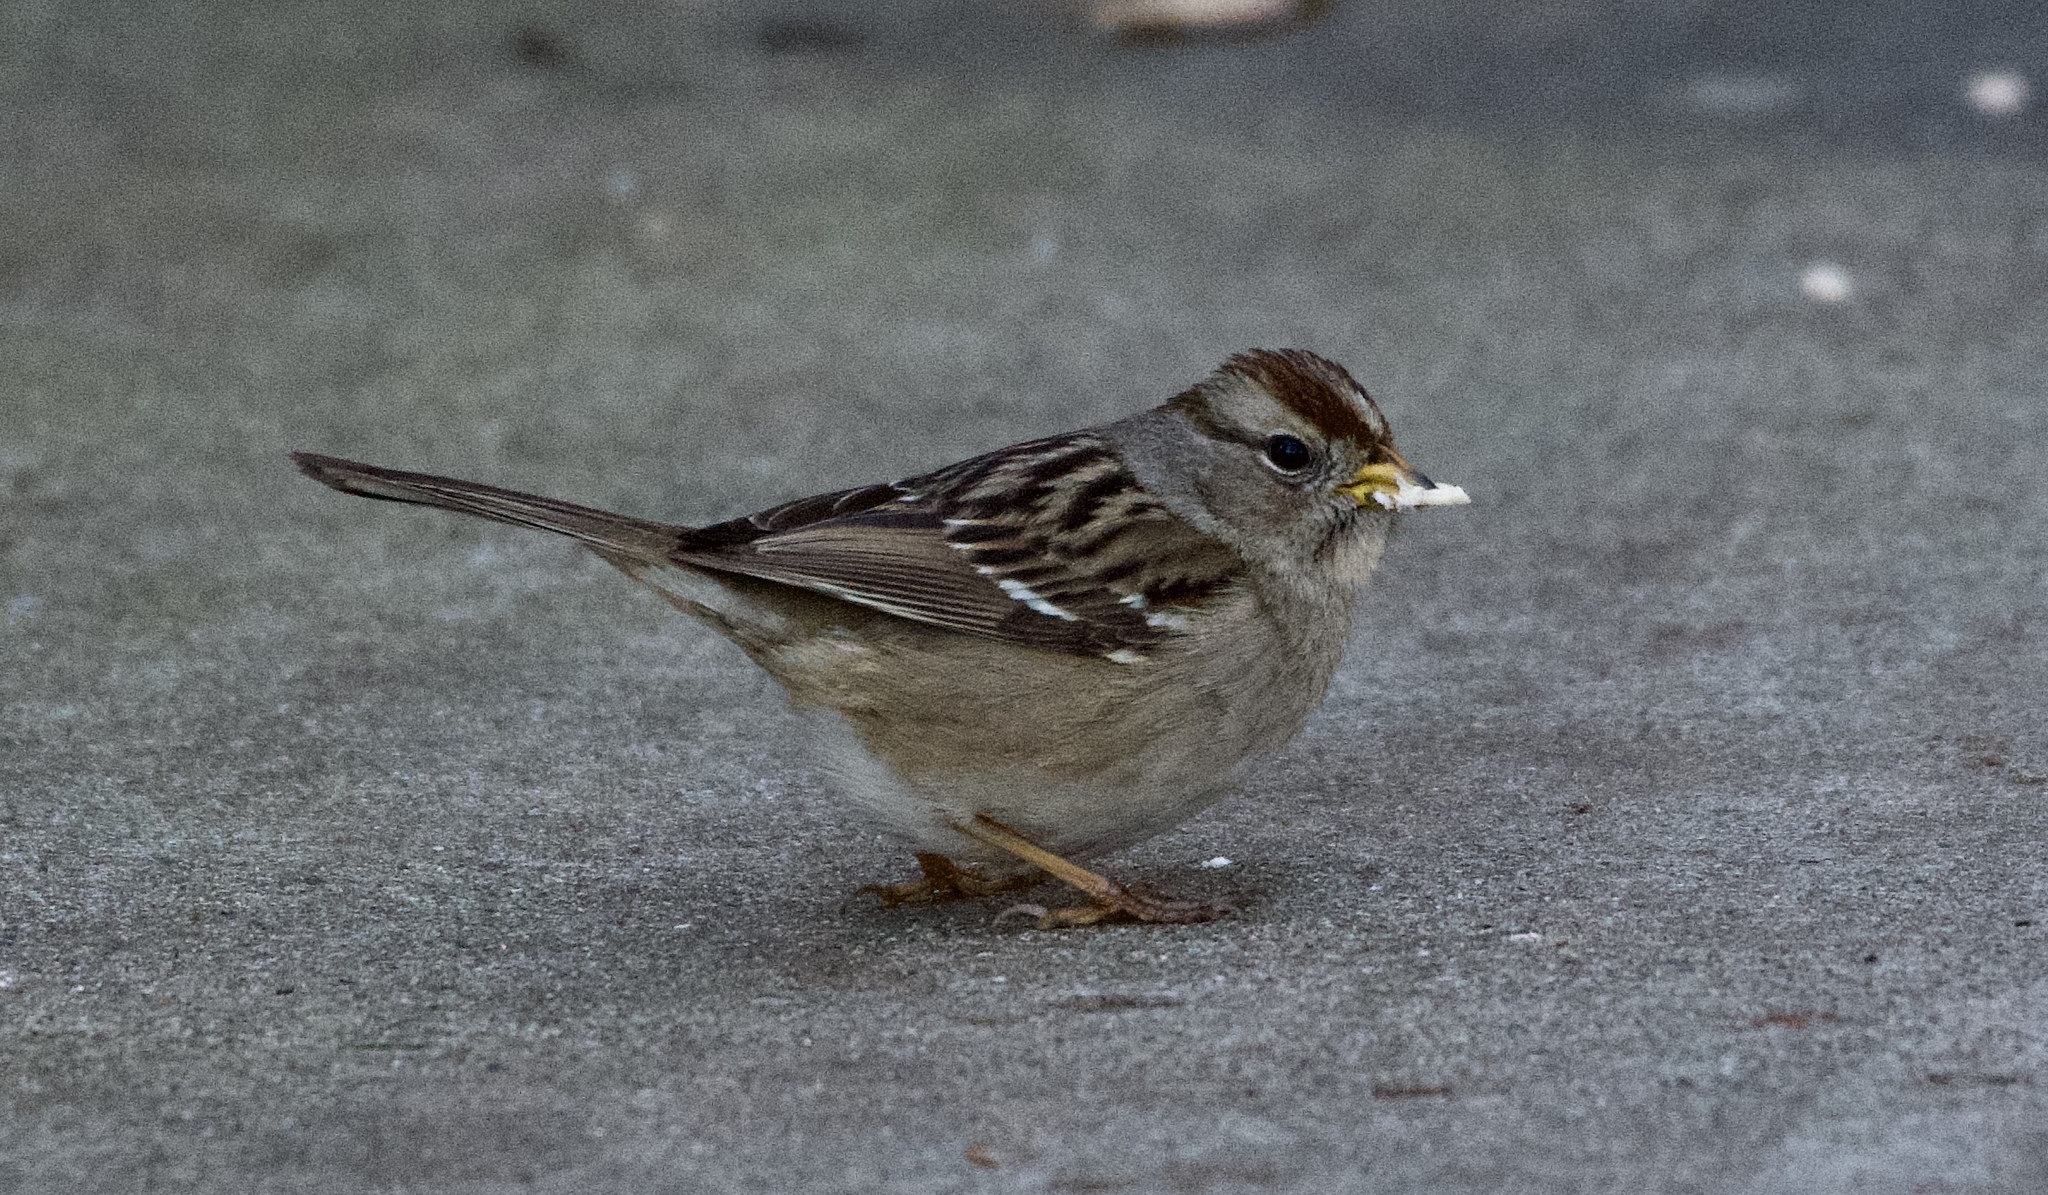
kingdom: Animalia
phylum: Chordata
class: Aves
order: Passeriformes
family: Passerellidae
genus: Zonotrichia
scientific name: Zonotrichia leucophrys
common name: White-crowned sparrow
